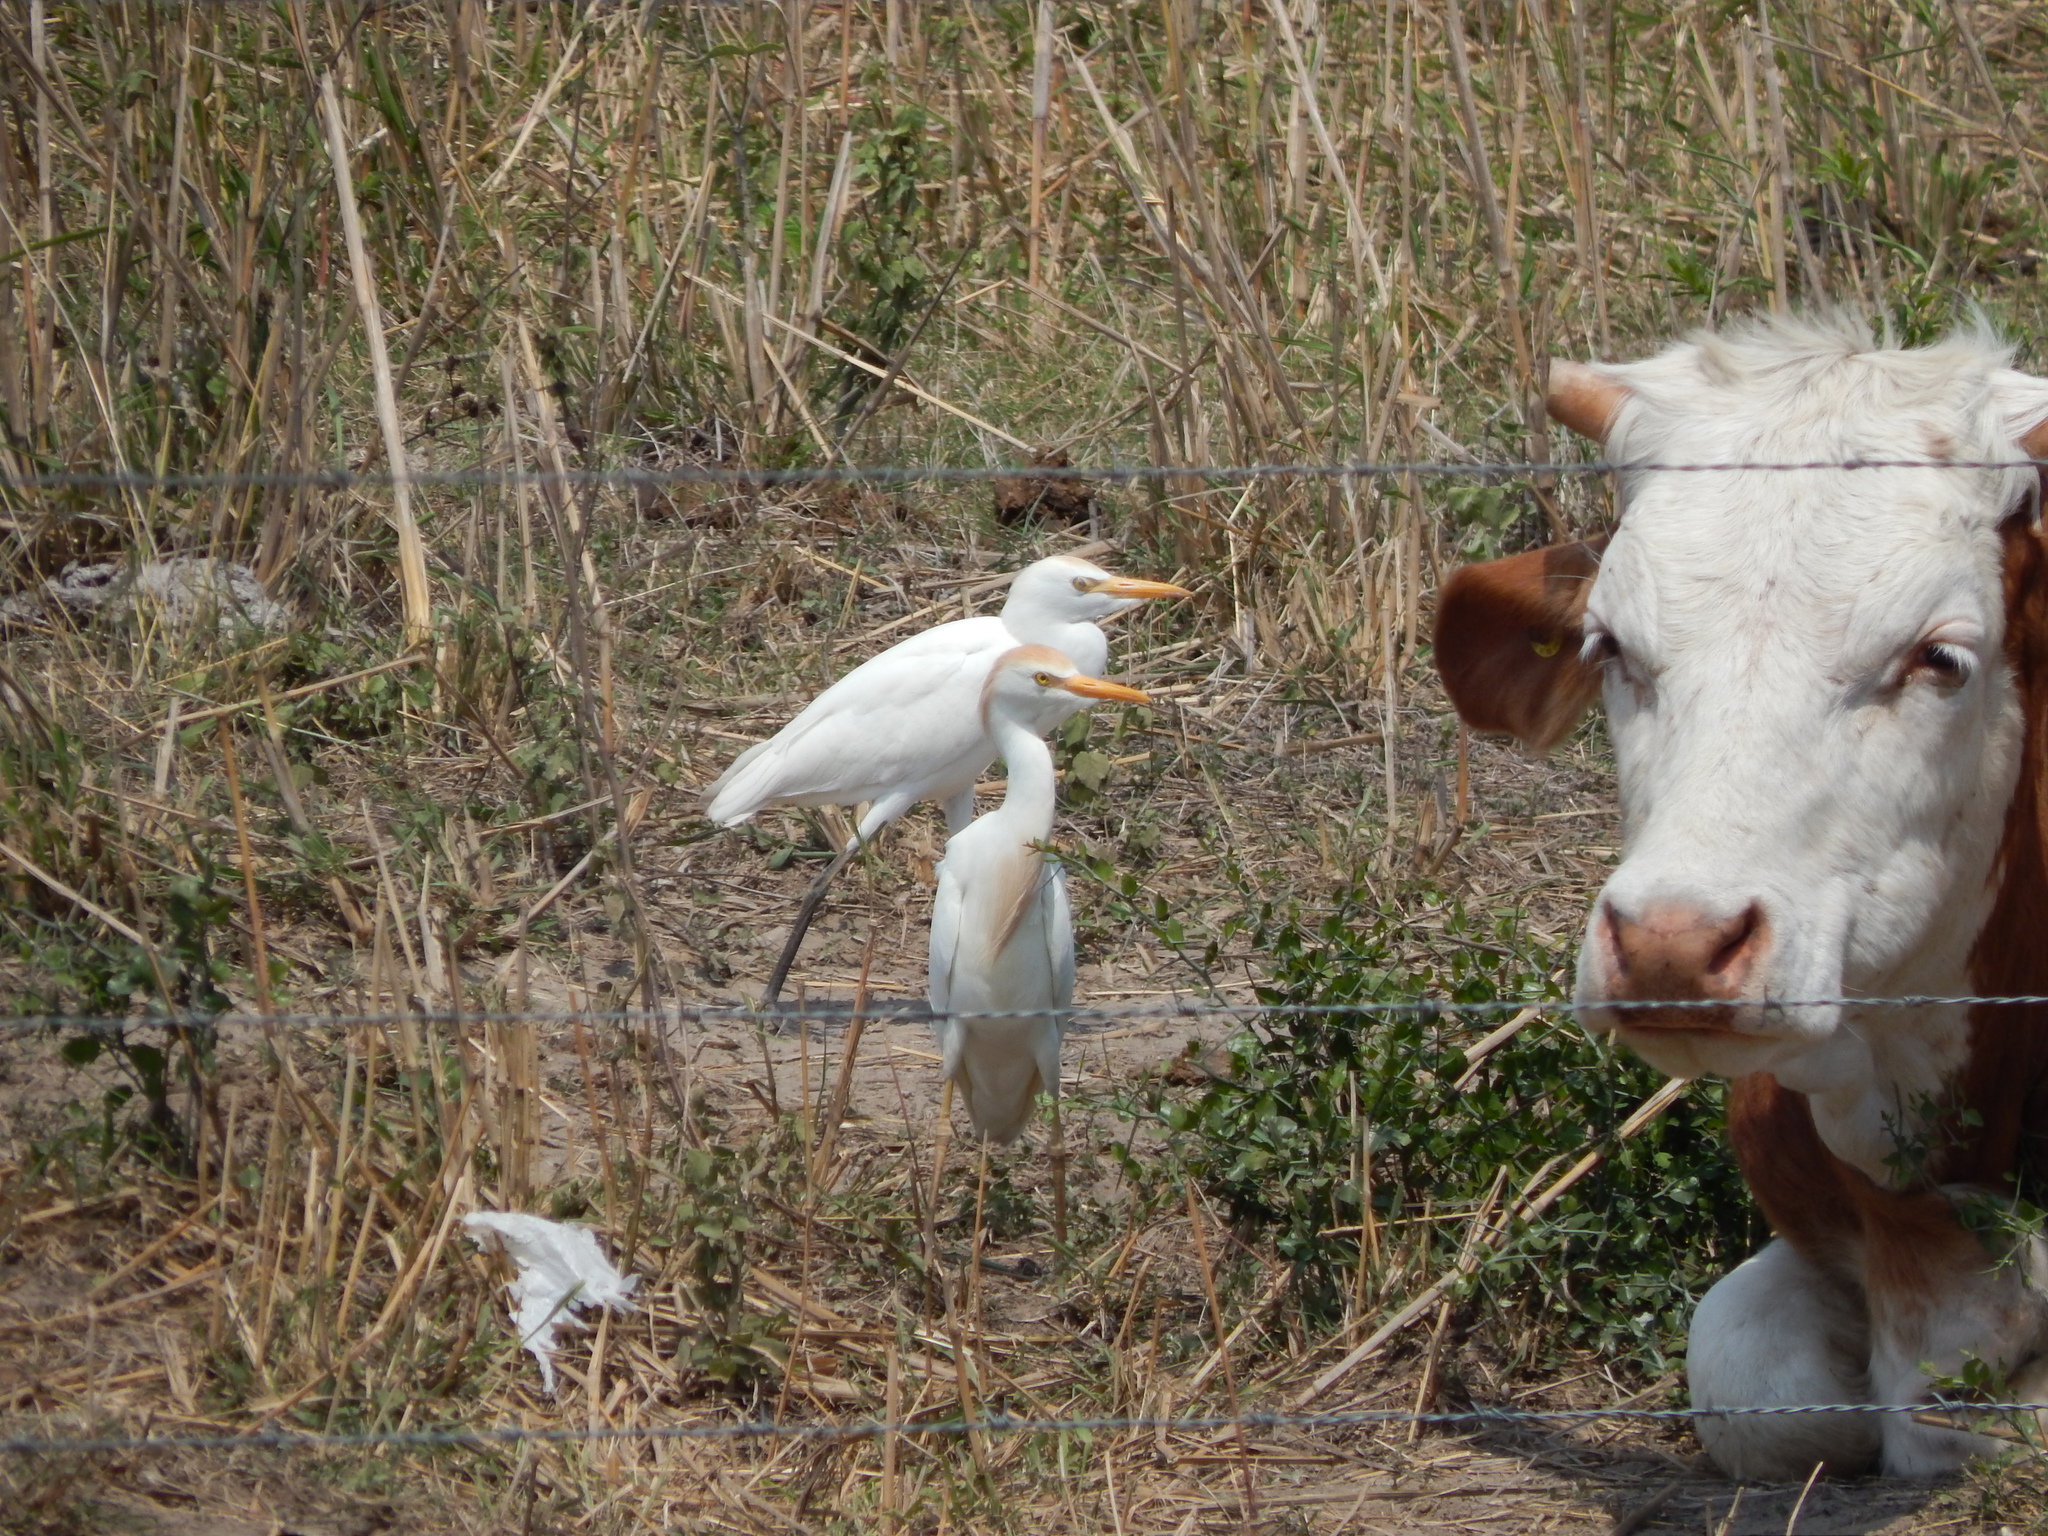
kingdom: Animalia
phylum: Chordata
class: Aves
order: Pelecaniformes
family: Ardeidae
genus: Bubulcus
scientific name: Bubulcus ibis
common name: Cattle egret
